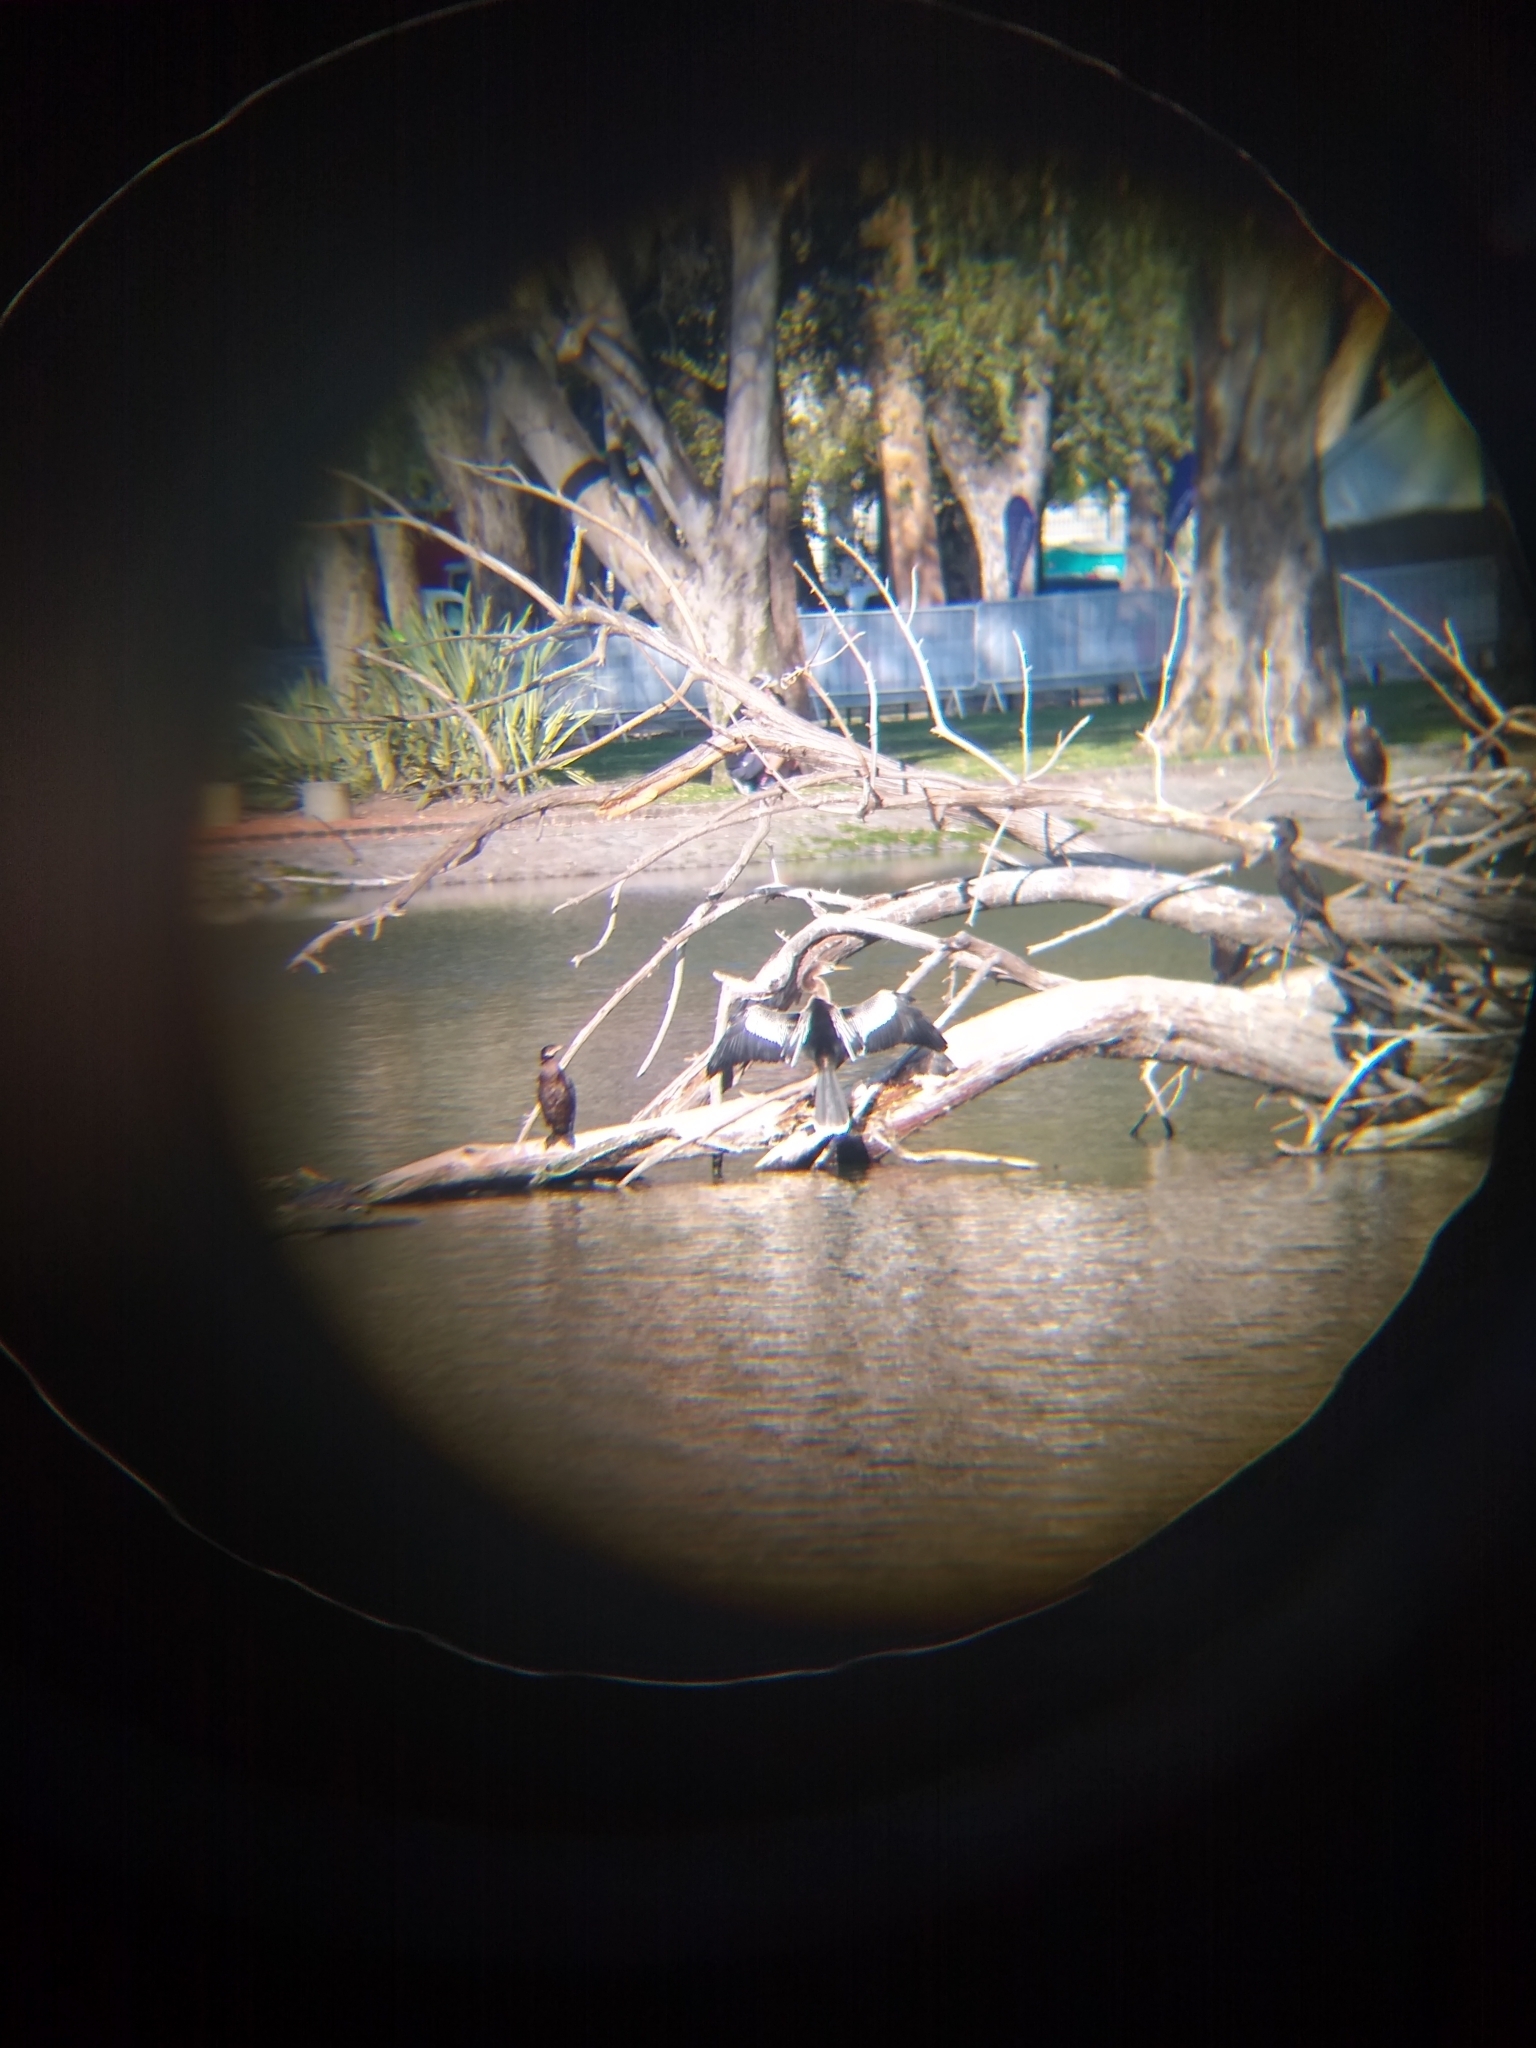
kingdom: Animalia
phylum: Chordata
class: Aves
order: Suliformes
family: Anhingidae
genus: Anhinga
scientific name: Anhinga anhinga
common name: Anhinga
